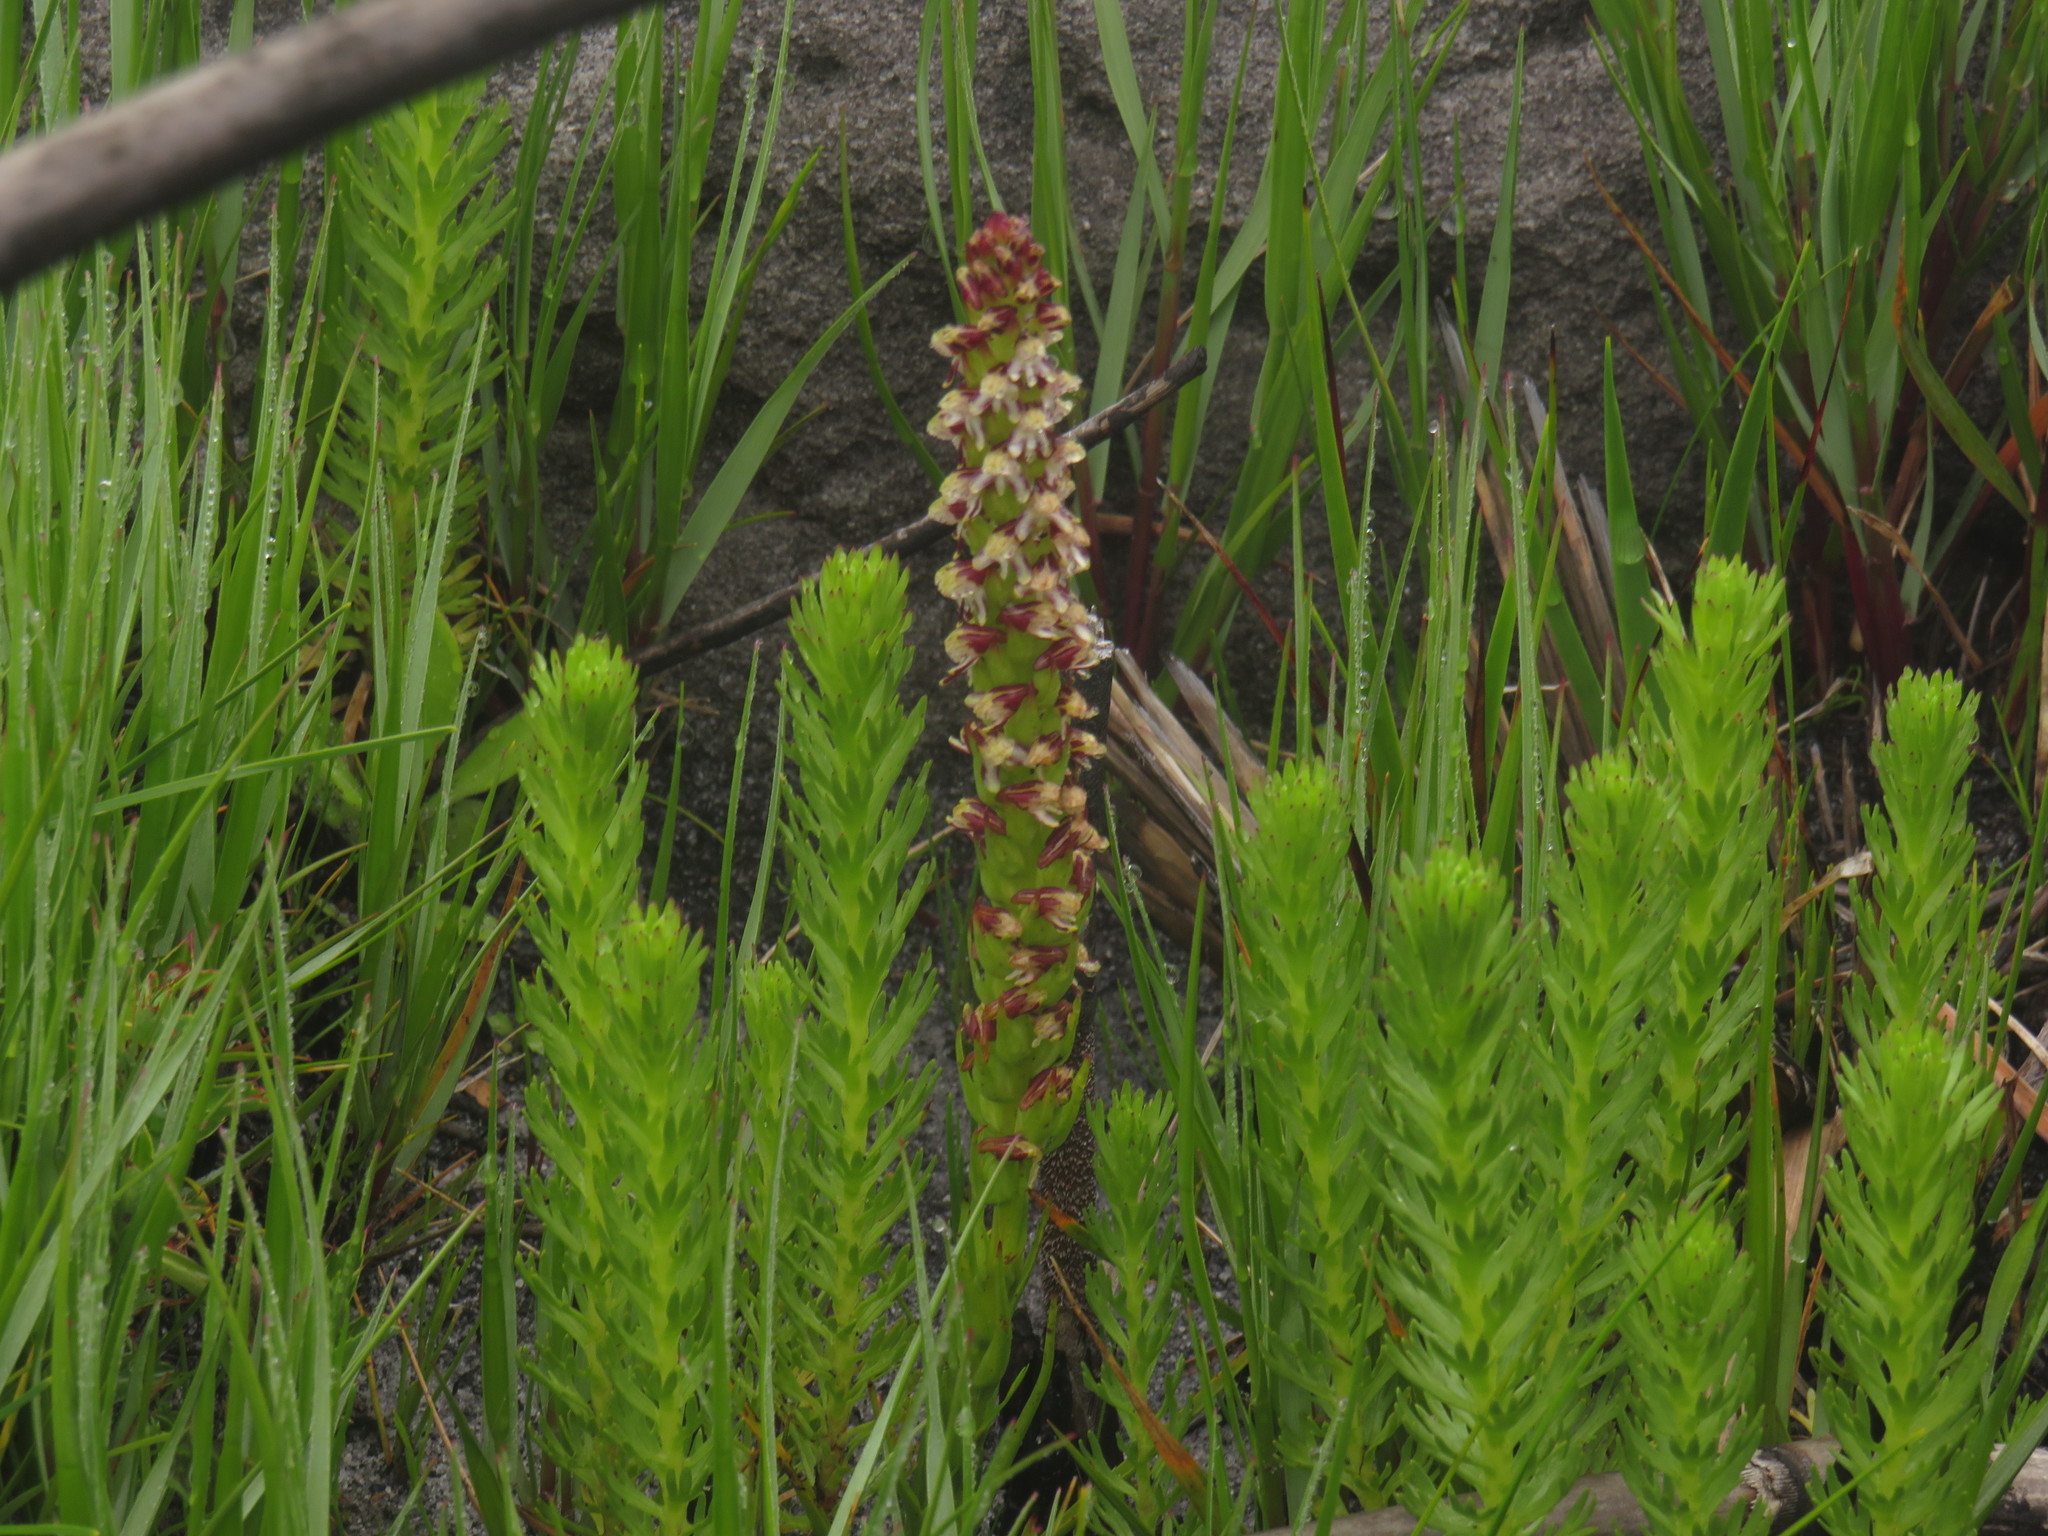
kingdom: Plantae
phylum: Tracheophyta
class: Liliopsida
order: Asparagales
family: Orchidaceae
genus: Disa
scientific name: Disa obtusa
